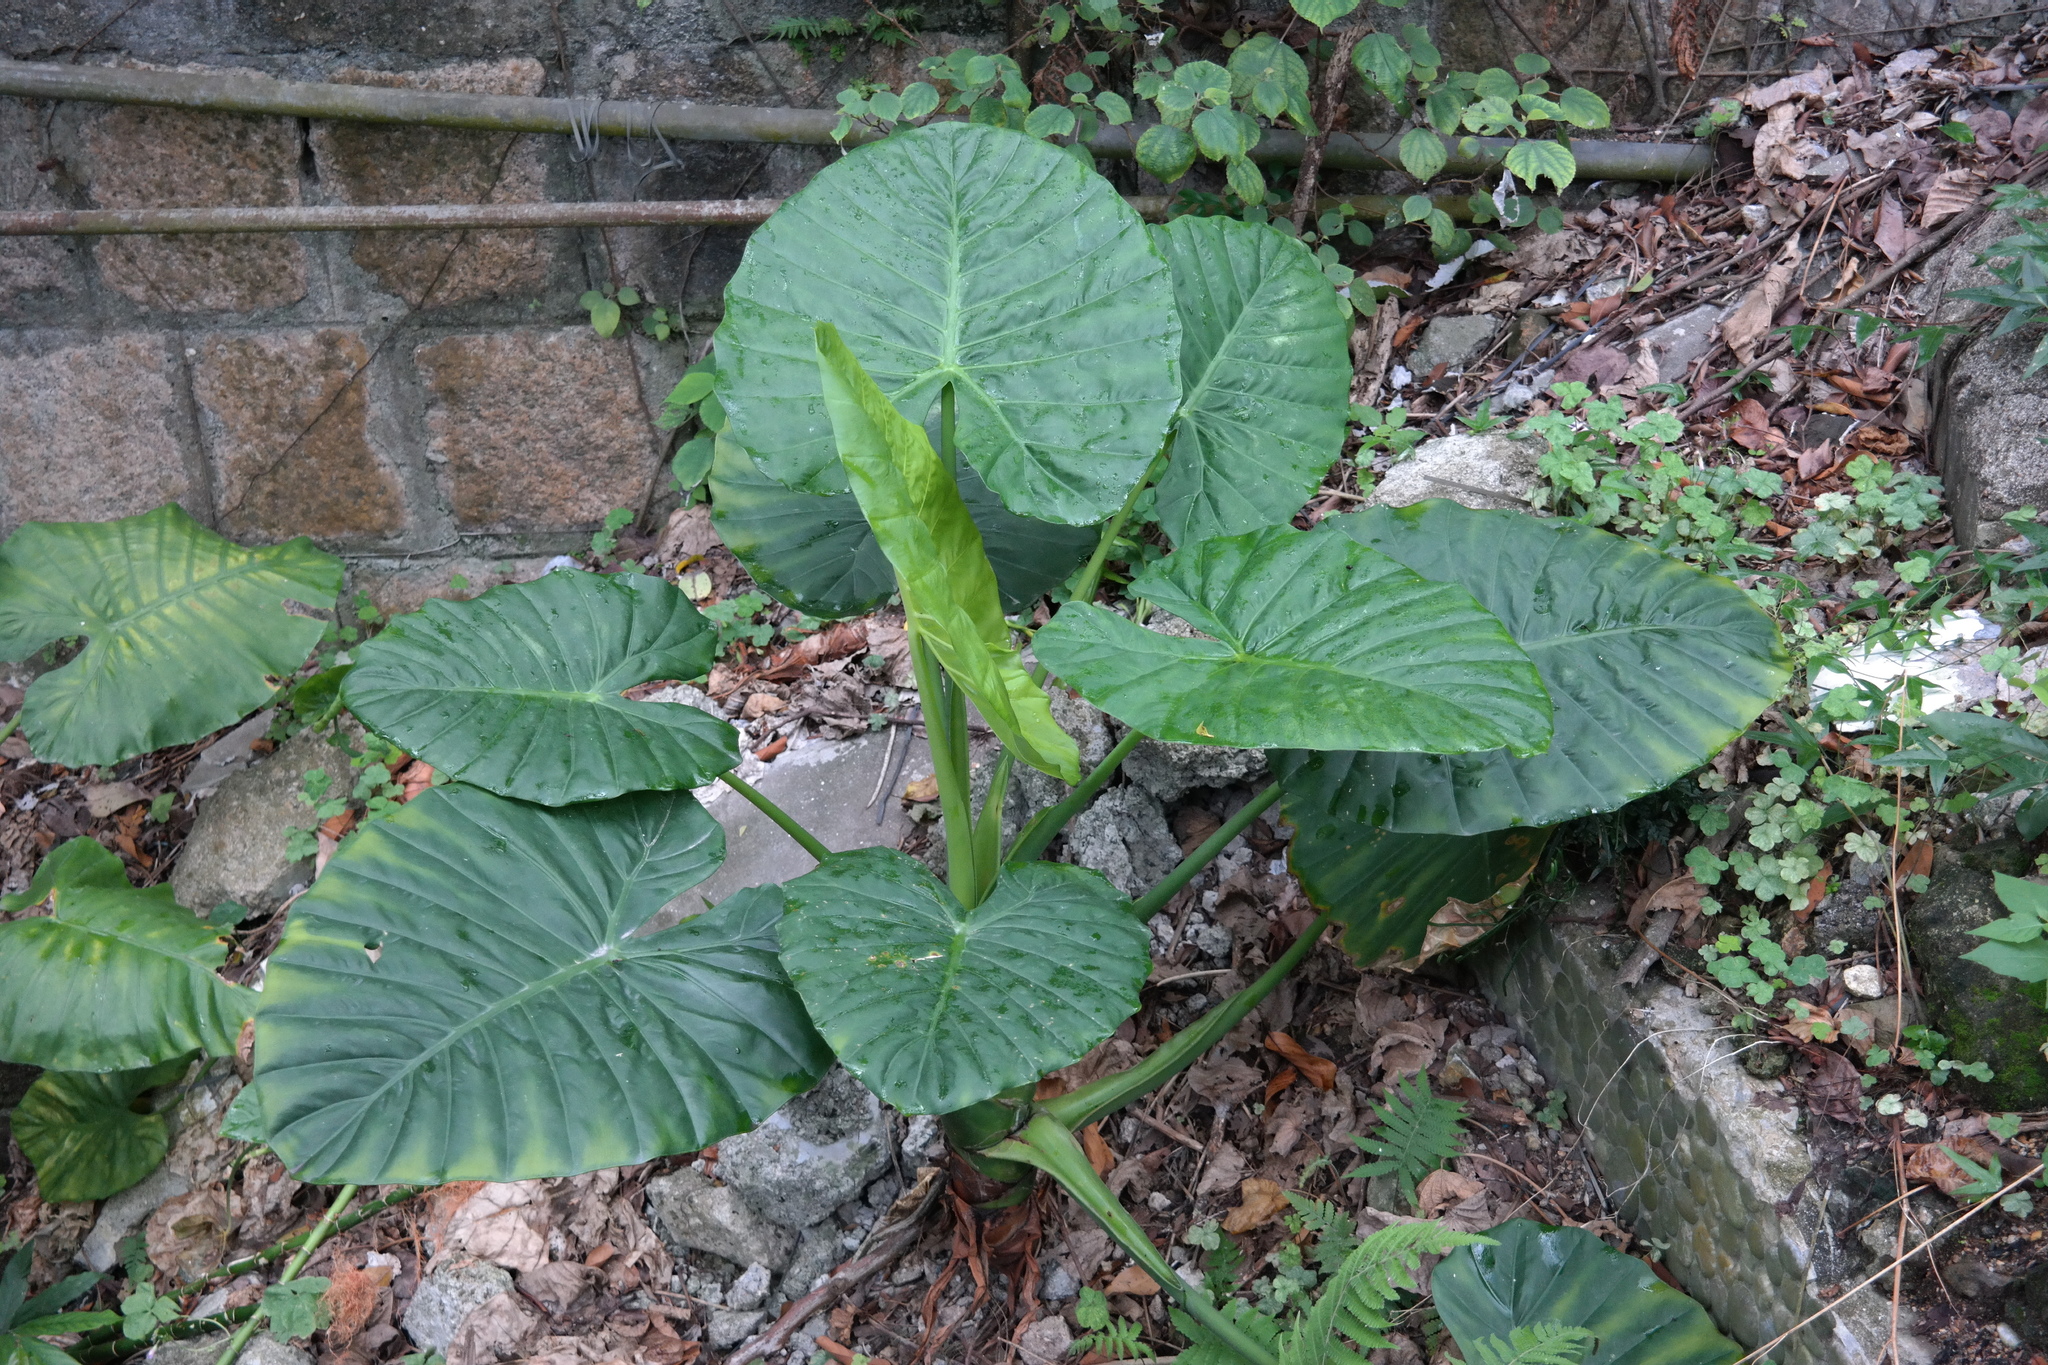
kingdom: Plantae
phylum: Tracheophyta
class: Liliopsida
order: Alismatales
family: Araceae
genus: Alocasia
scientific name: Alocasia macrorrhizos
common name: Giant taro
